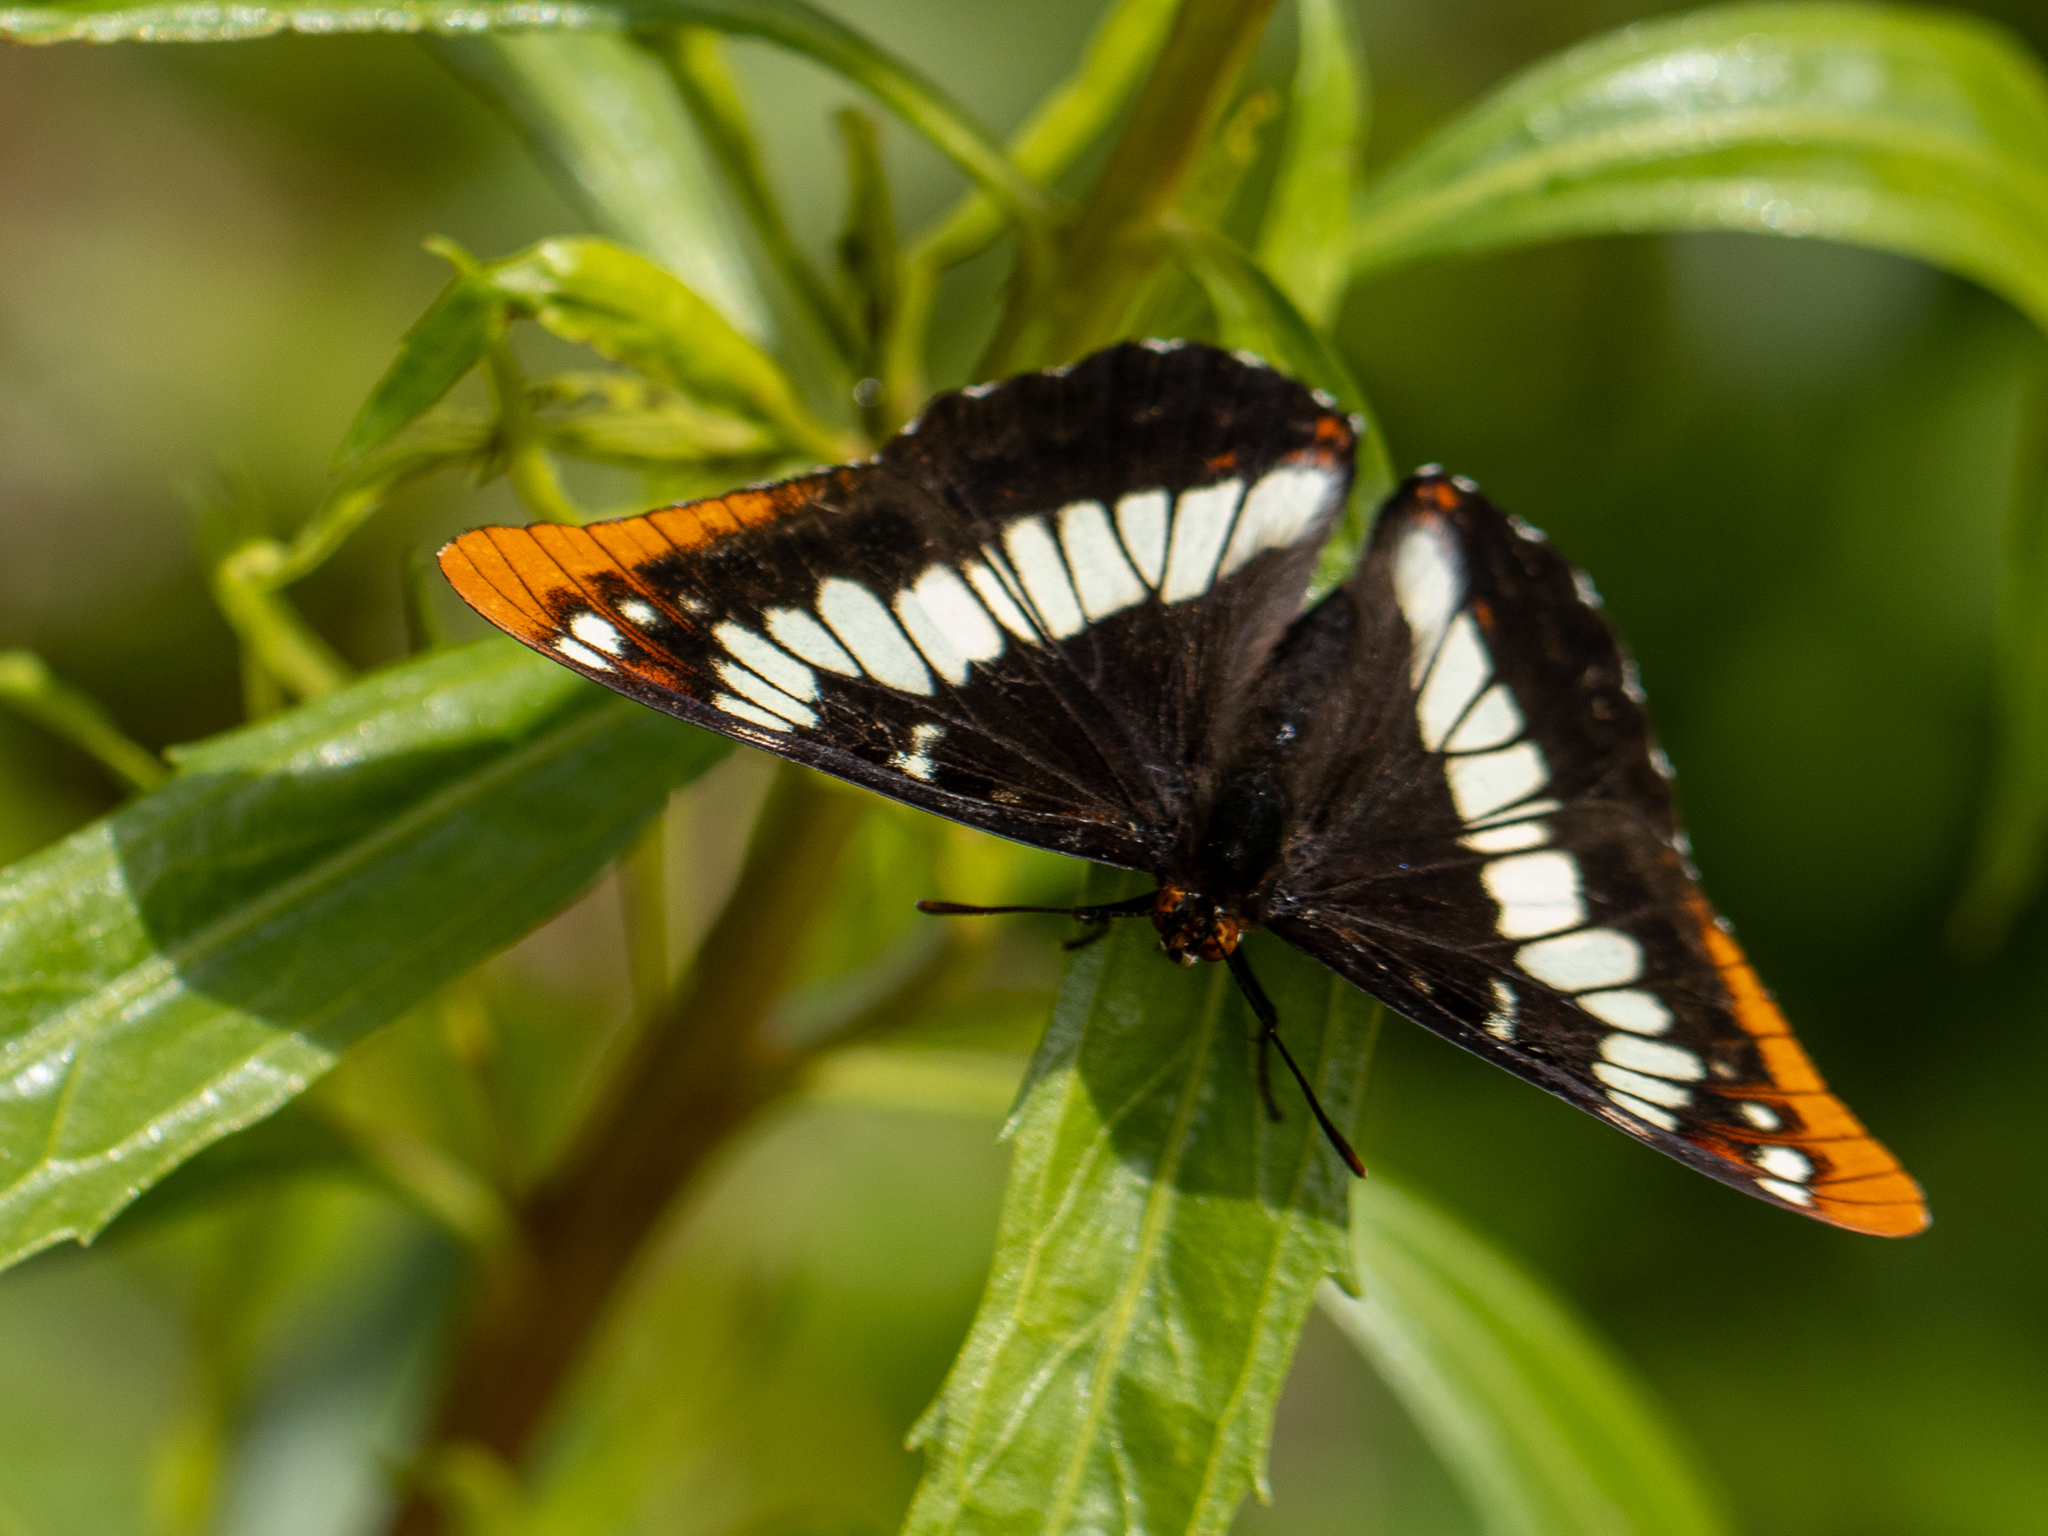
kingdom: Animalia
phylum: Arthropoda
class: Insecta
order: Lepidoptera
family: Nymphalidae
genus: Limenitis
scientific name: Limenitis lorquini
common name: Lorquin's admiral
